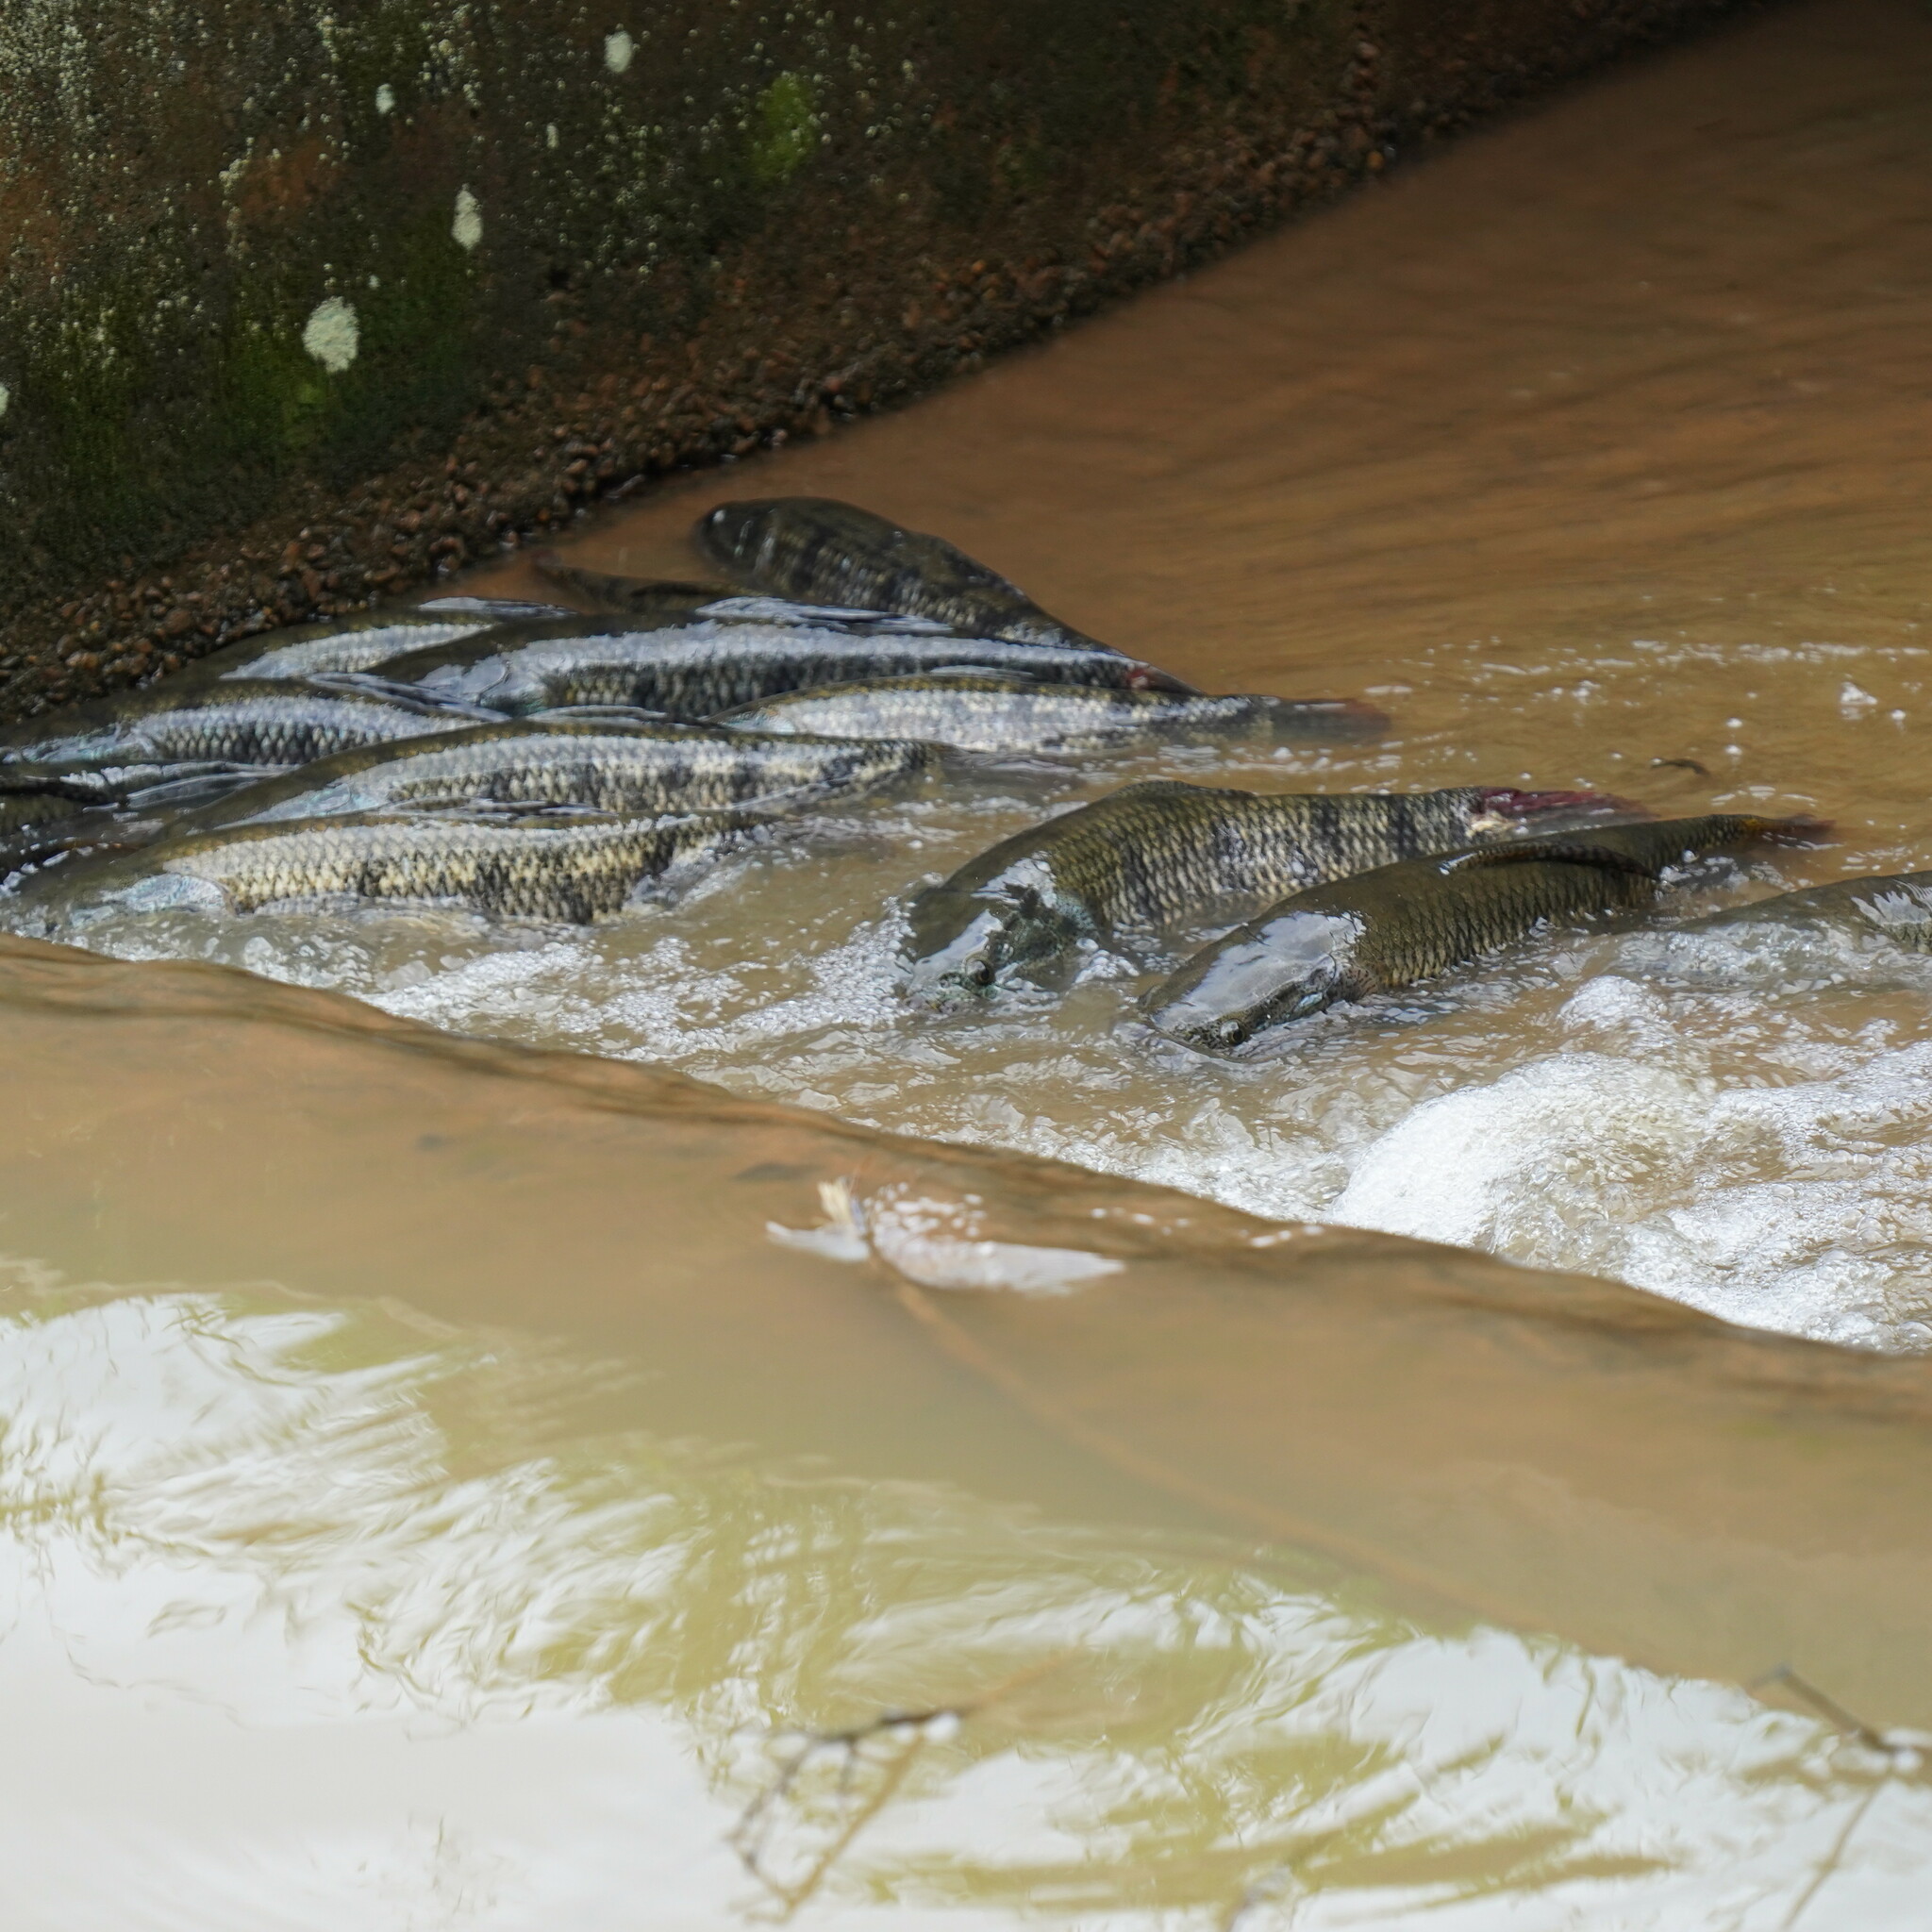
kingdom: Animalia
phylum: Chordata
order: Characiformes
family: Erythrinidae
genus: Hoplias
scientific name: Hoplias malabaricus
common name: Trahira
